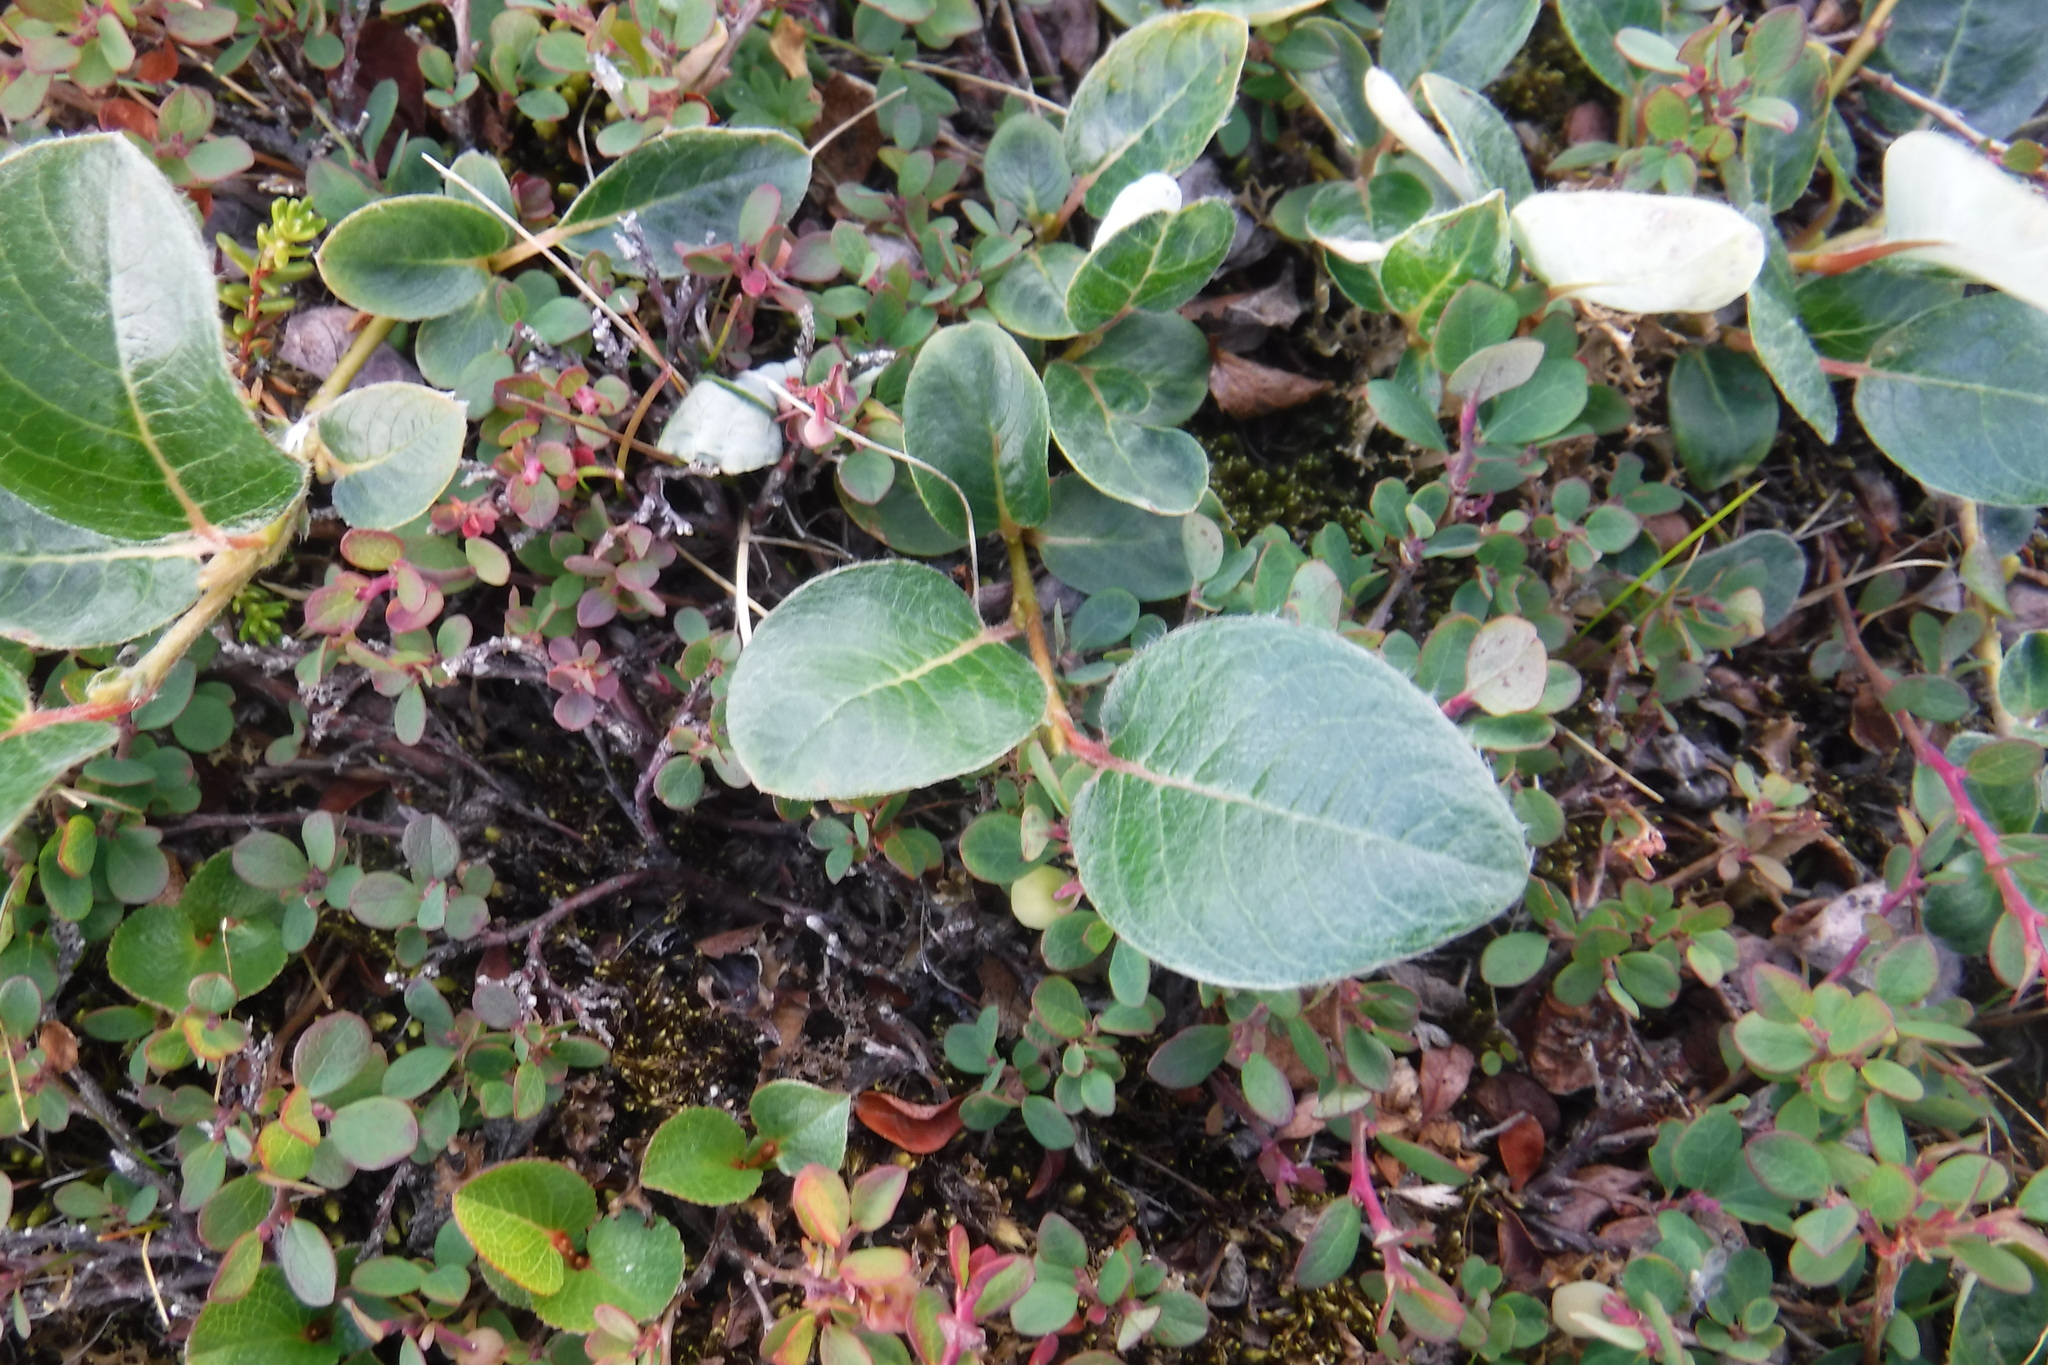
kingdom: Plantae
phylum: Tracheophyta
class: Magnoliopsida
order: Malpighiales
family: Salicaceae
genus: Salix
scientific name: Salix arctica
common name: Arctic willow
